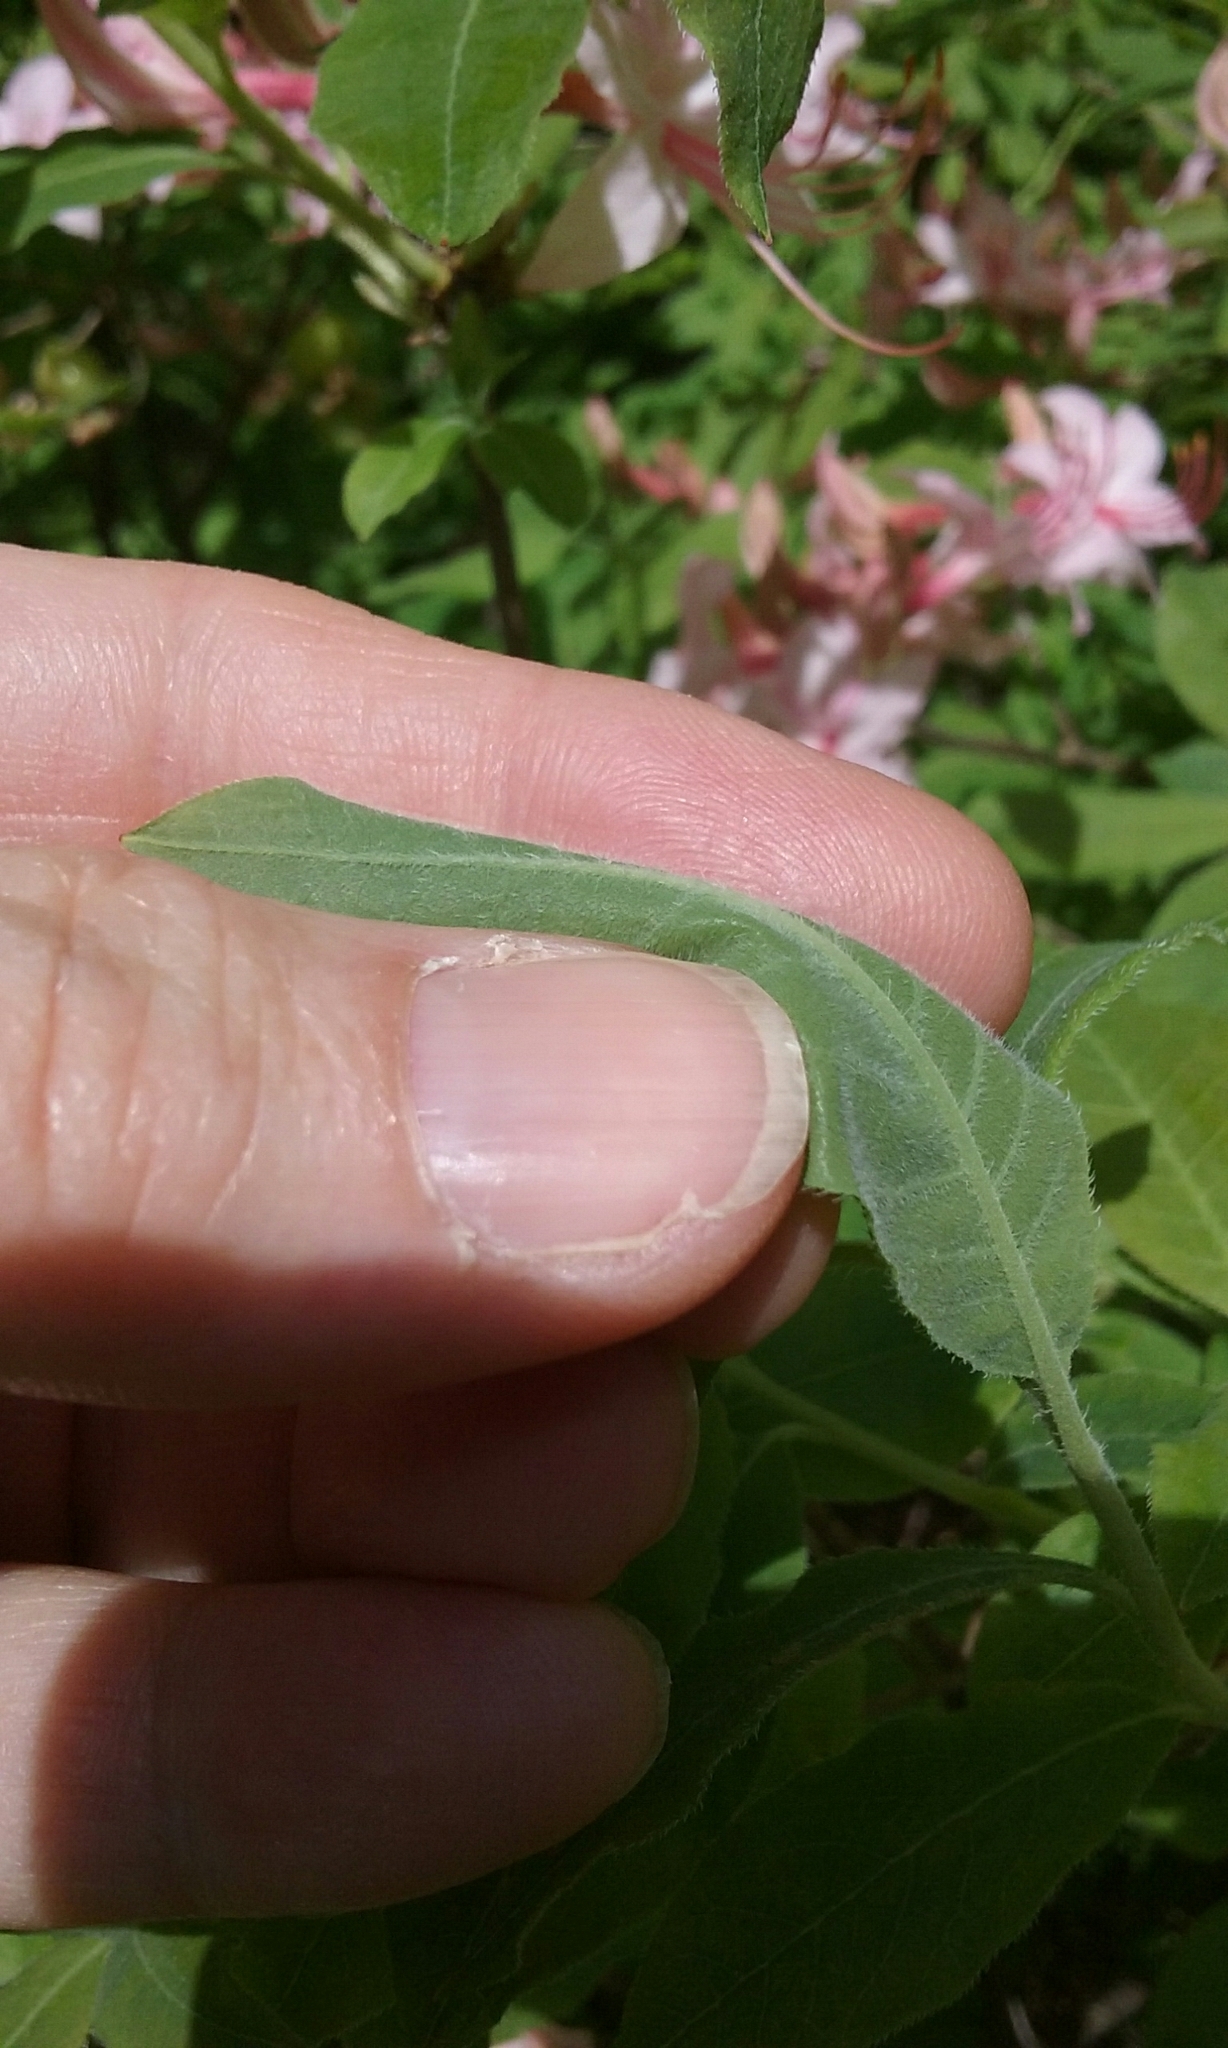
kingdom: Plantae
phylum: Tracheophyta
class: Magnoliopsida
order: Ericales
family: Ericaceae
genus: Rhododendron
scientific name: Rhododendron roseum
